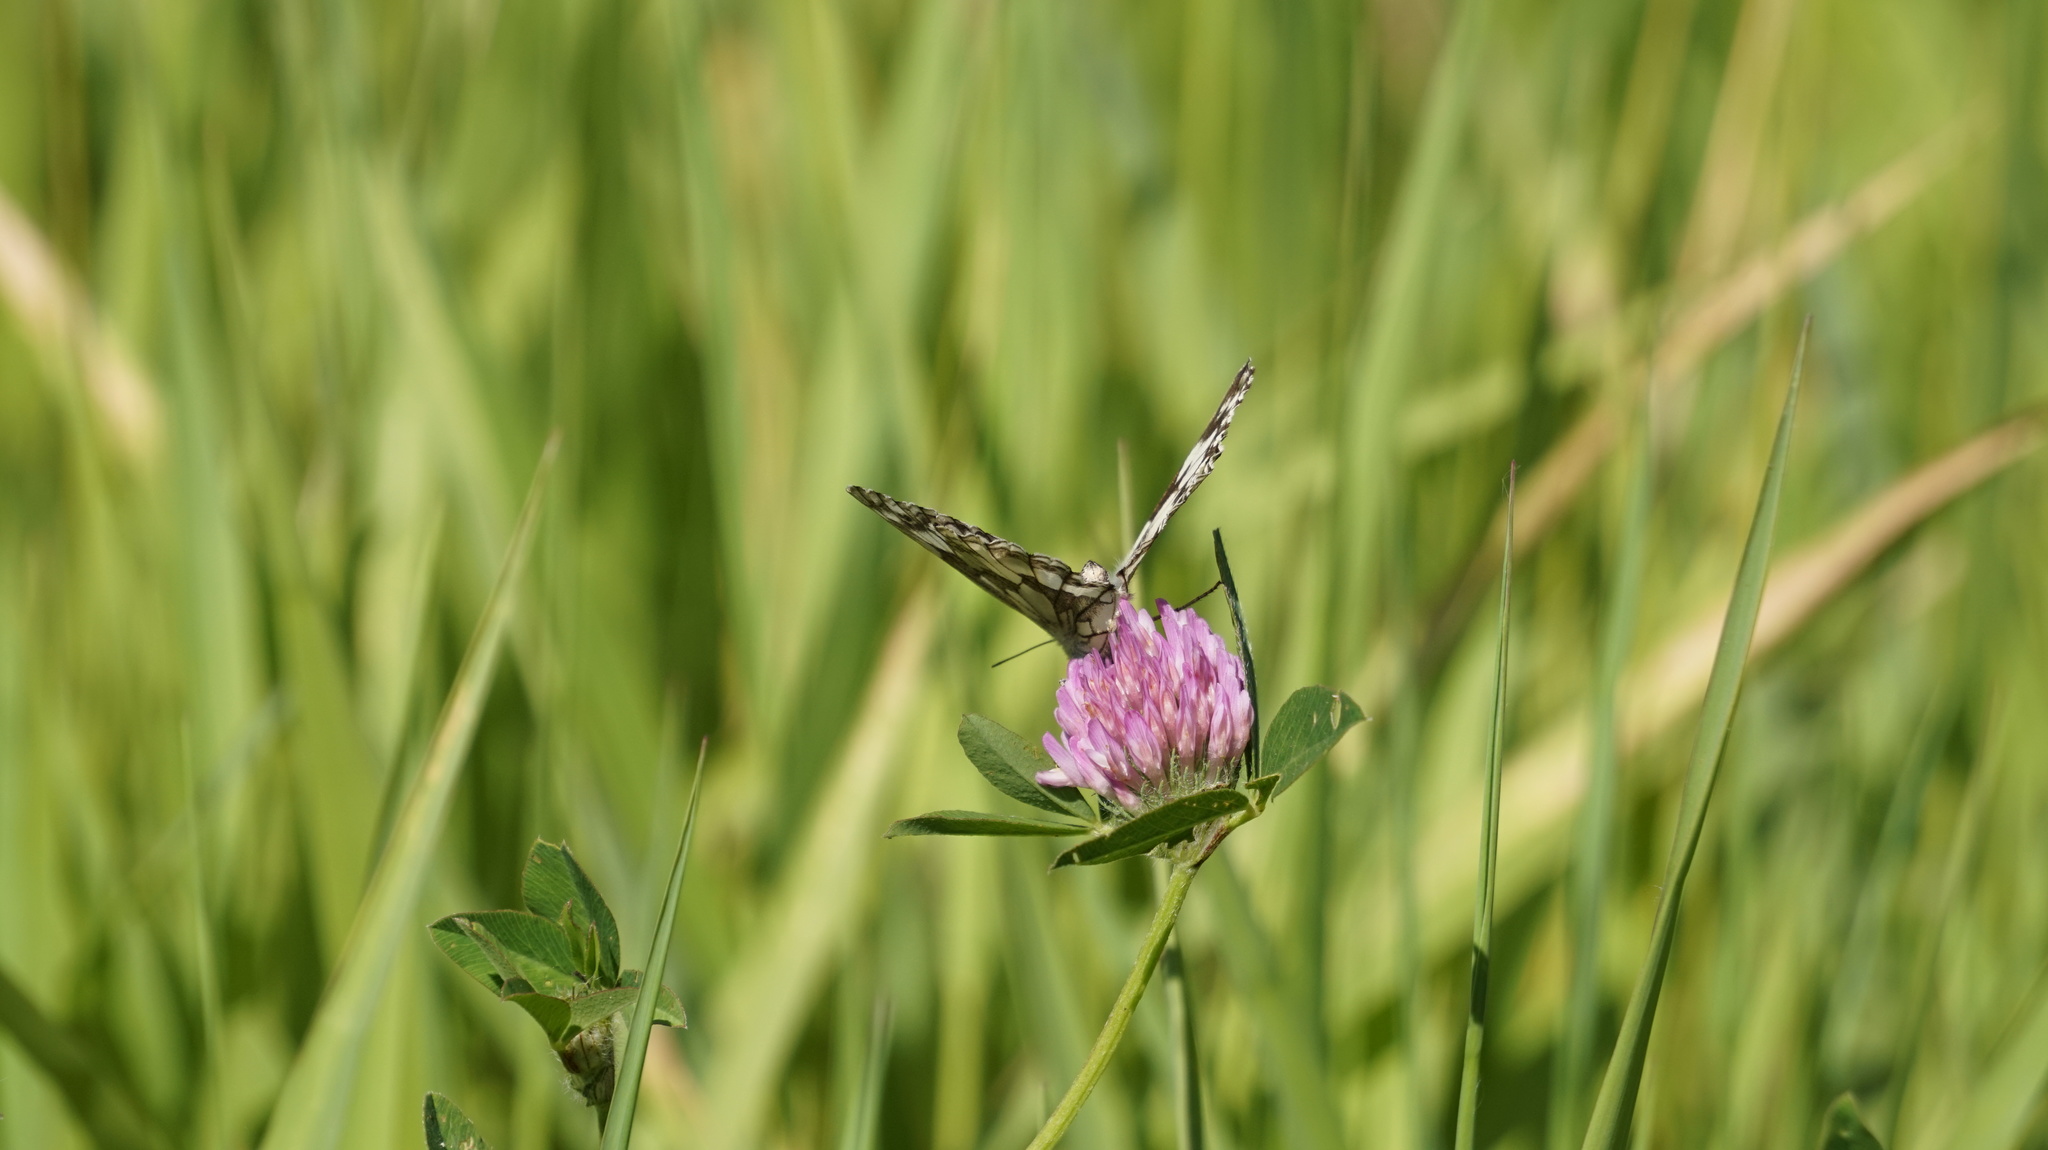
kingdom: Animalia
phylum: Arthropoda
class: Insecta
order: Lepidoptera
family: Nymphalidae
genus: Melanargia
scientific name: Melanargia galathea
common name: Marbled white
